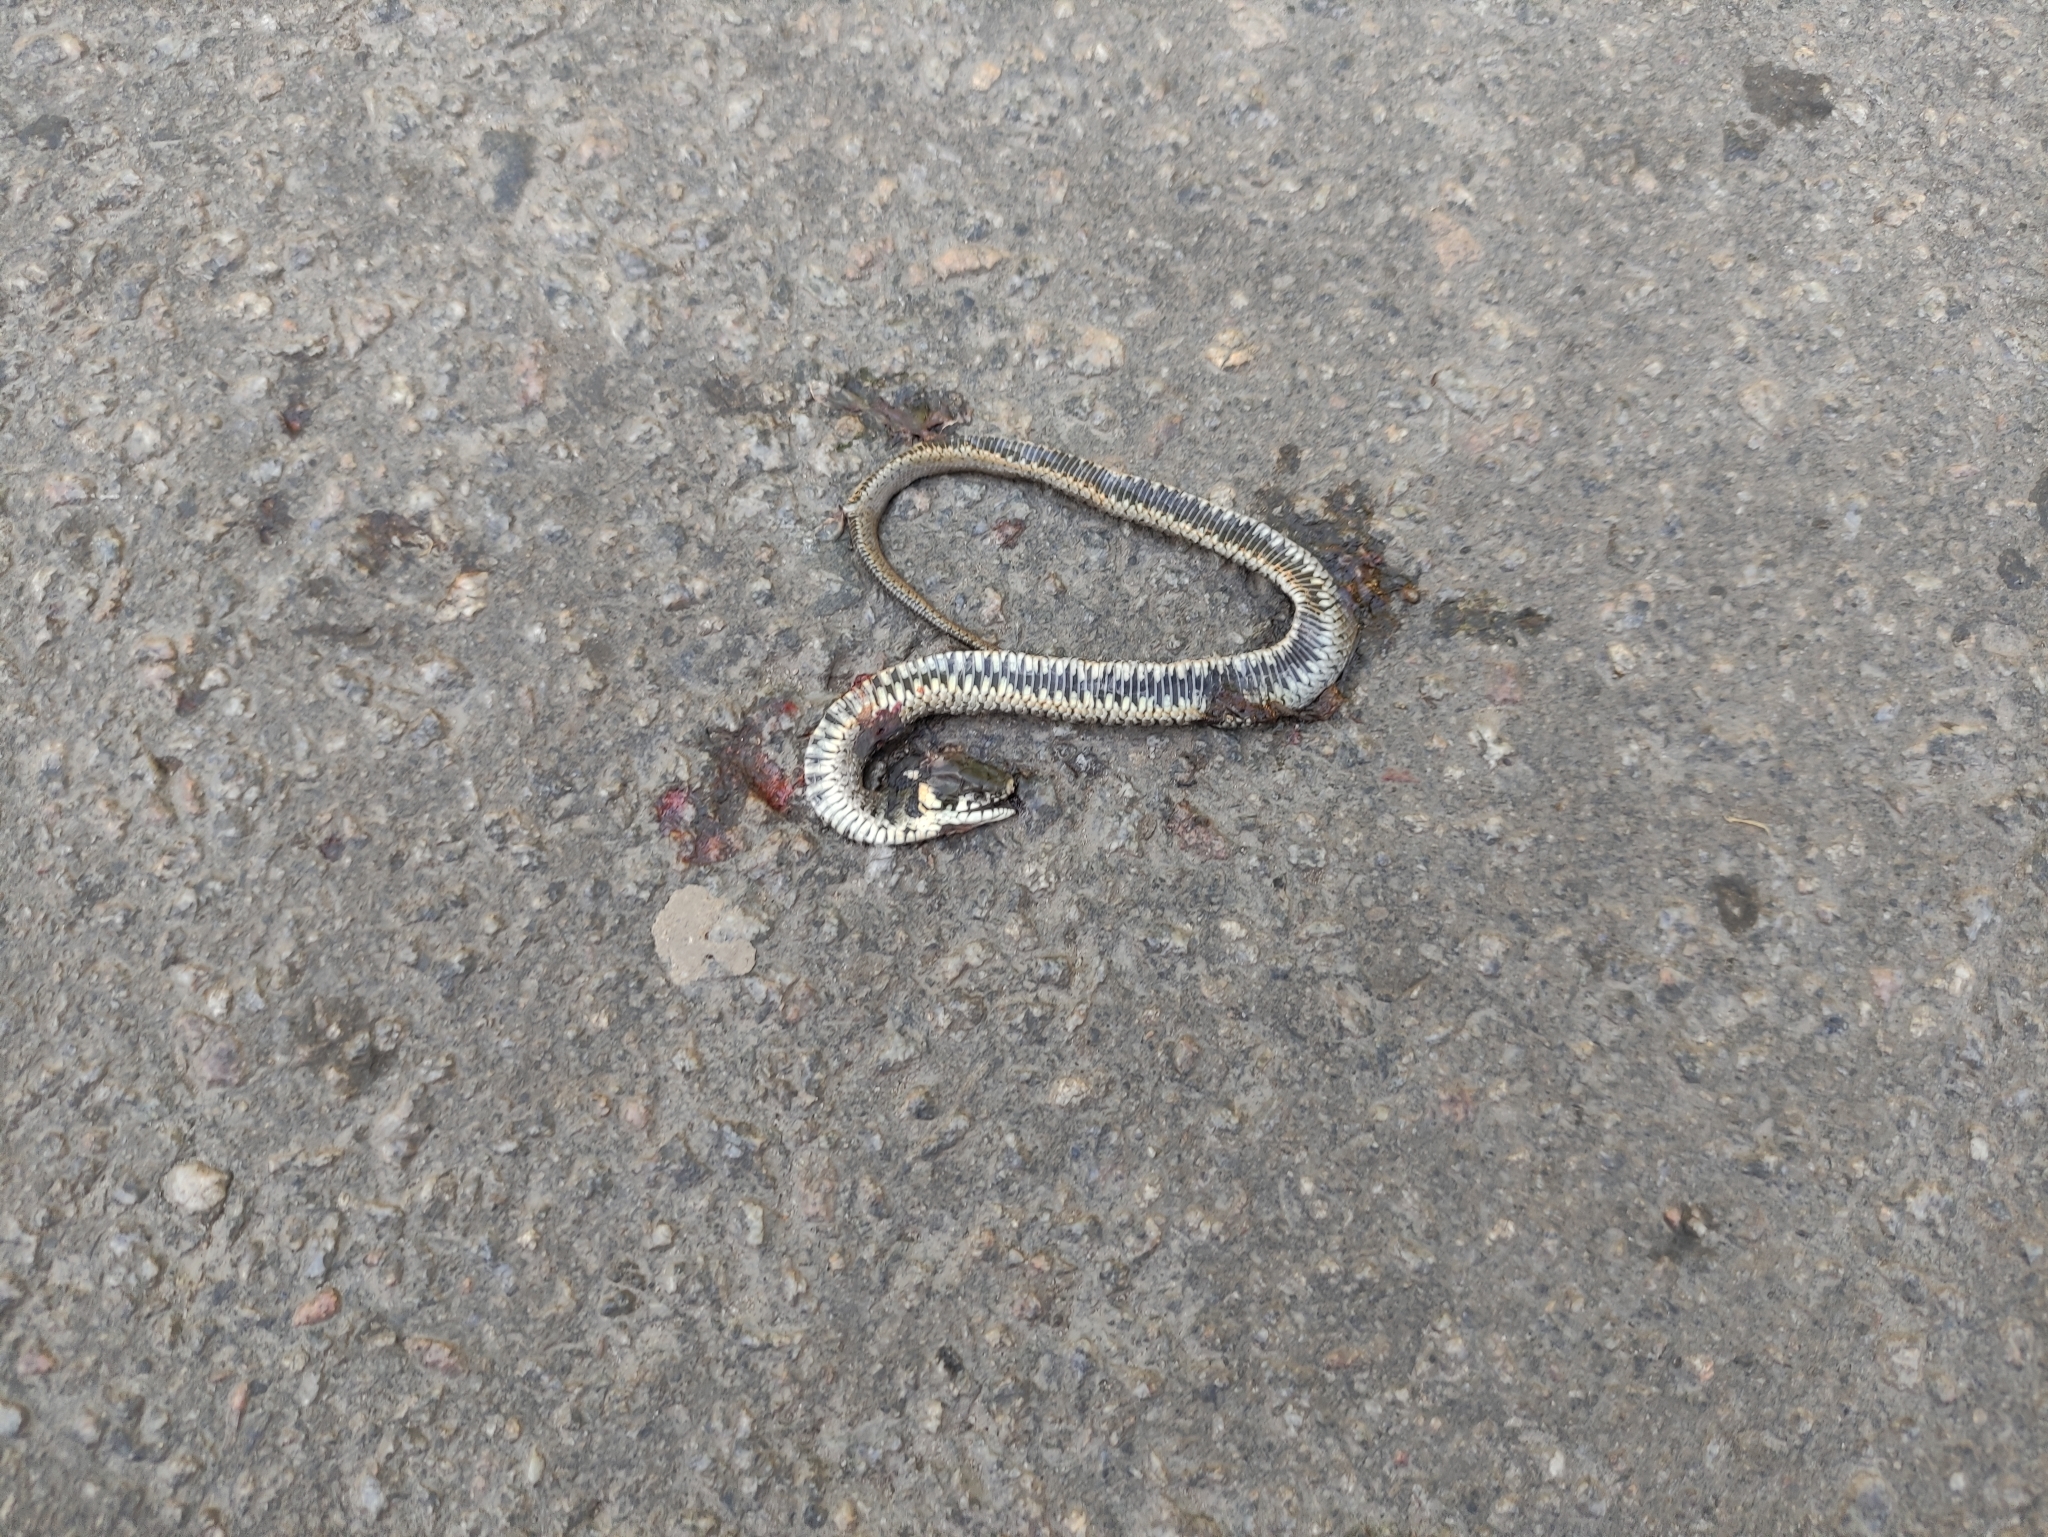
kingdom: Animalia
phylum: Chordata
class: Squamata
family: Colubridae
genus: Natrix
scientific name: Natrix natrix
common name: Grass snake
